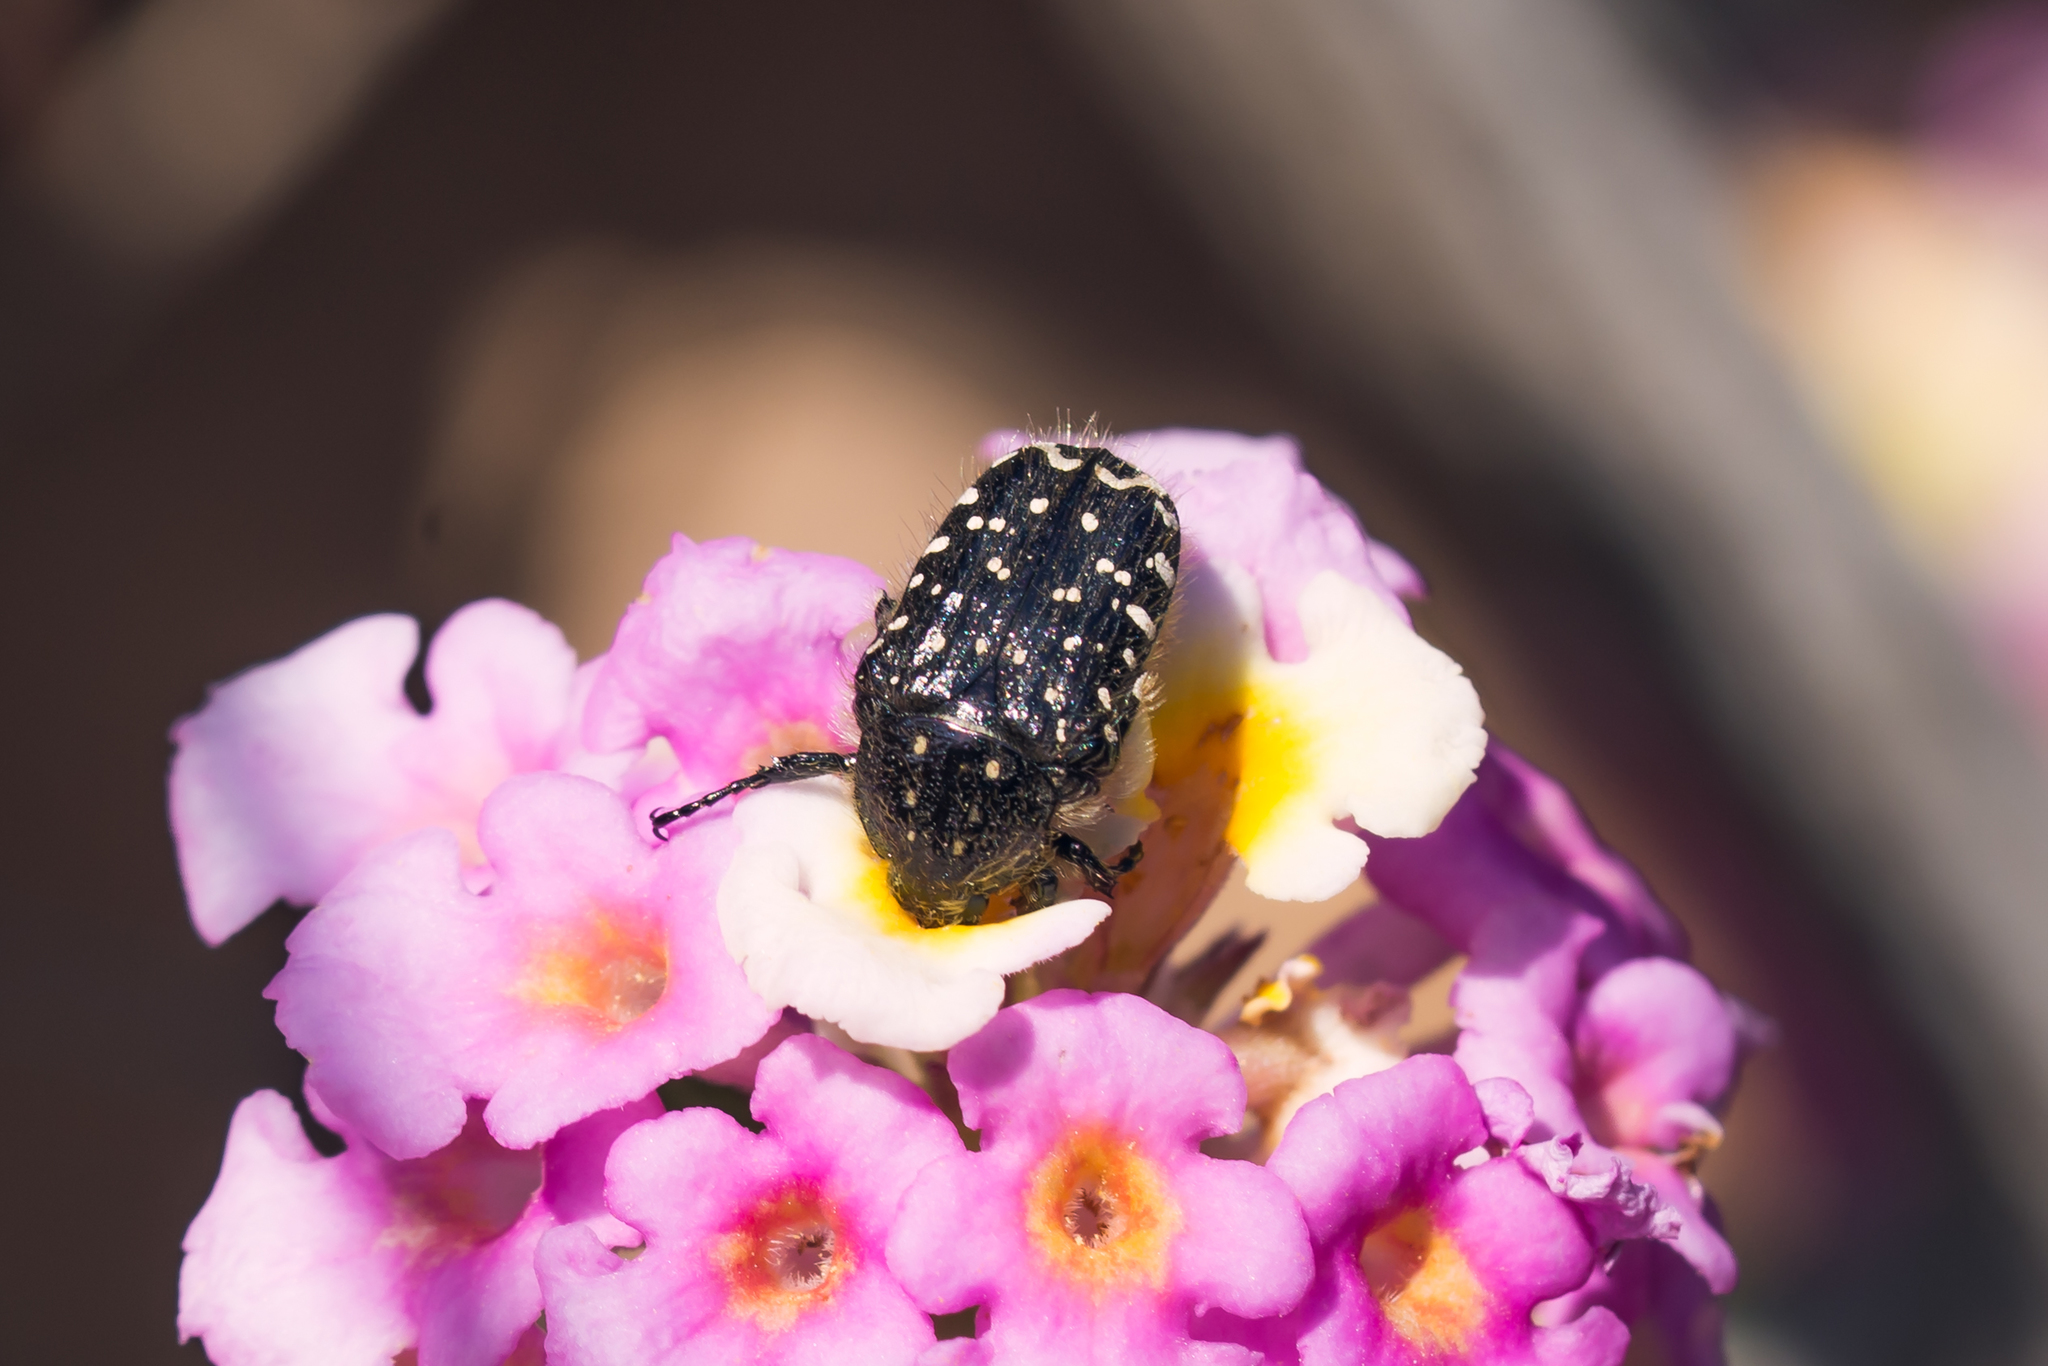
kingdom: Animalia
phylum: Arthropoda
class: Insecta
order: Coleoptera
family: Scarabaeidae
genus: Oxythyrea
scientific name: Oxythyrea funesta
